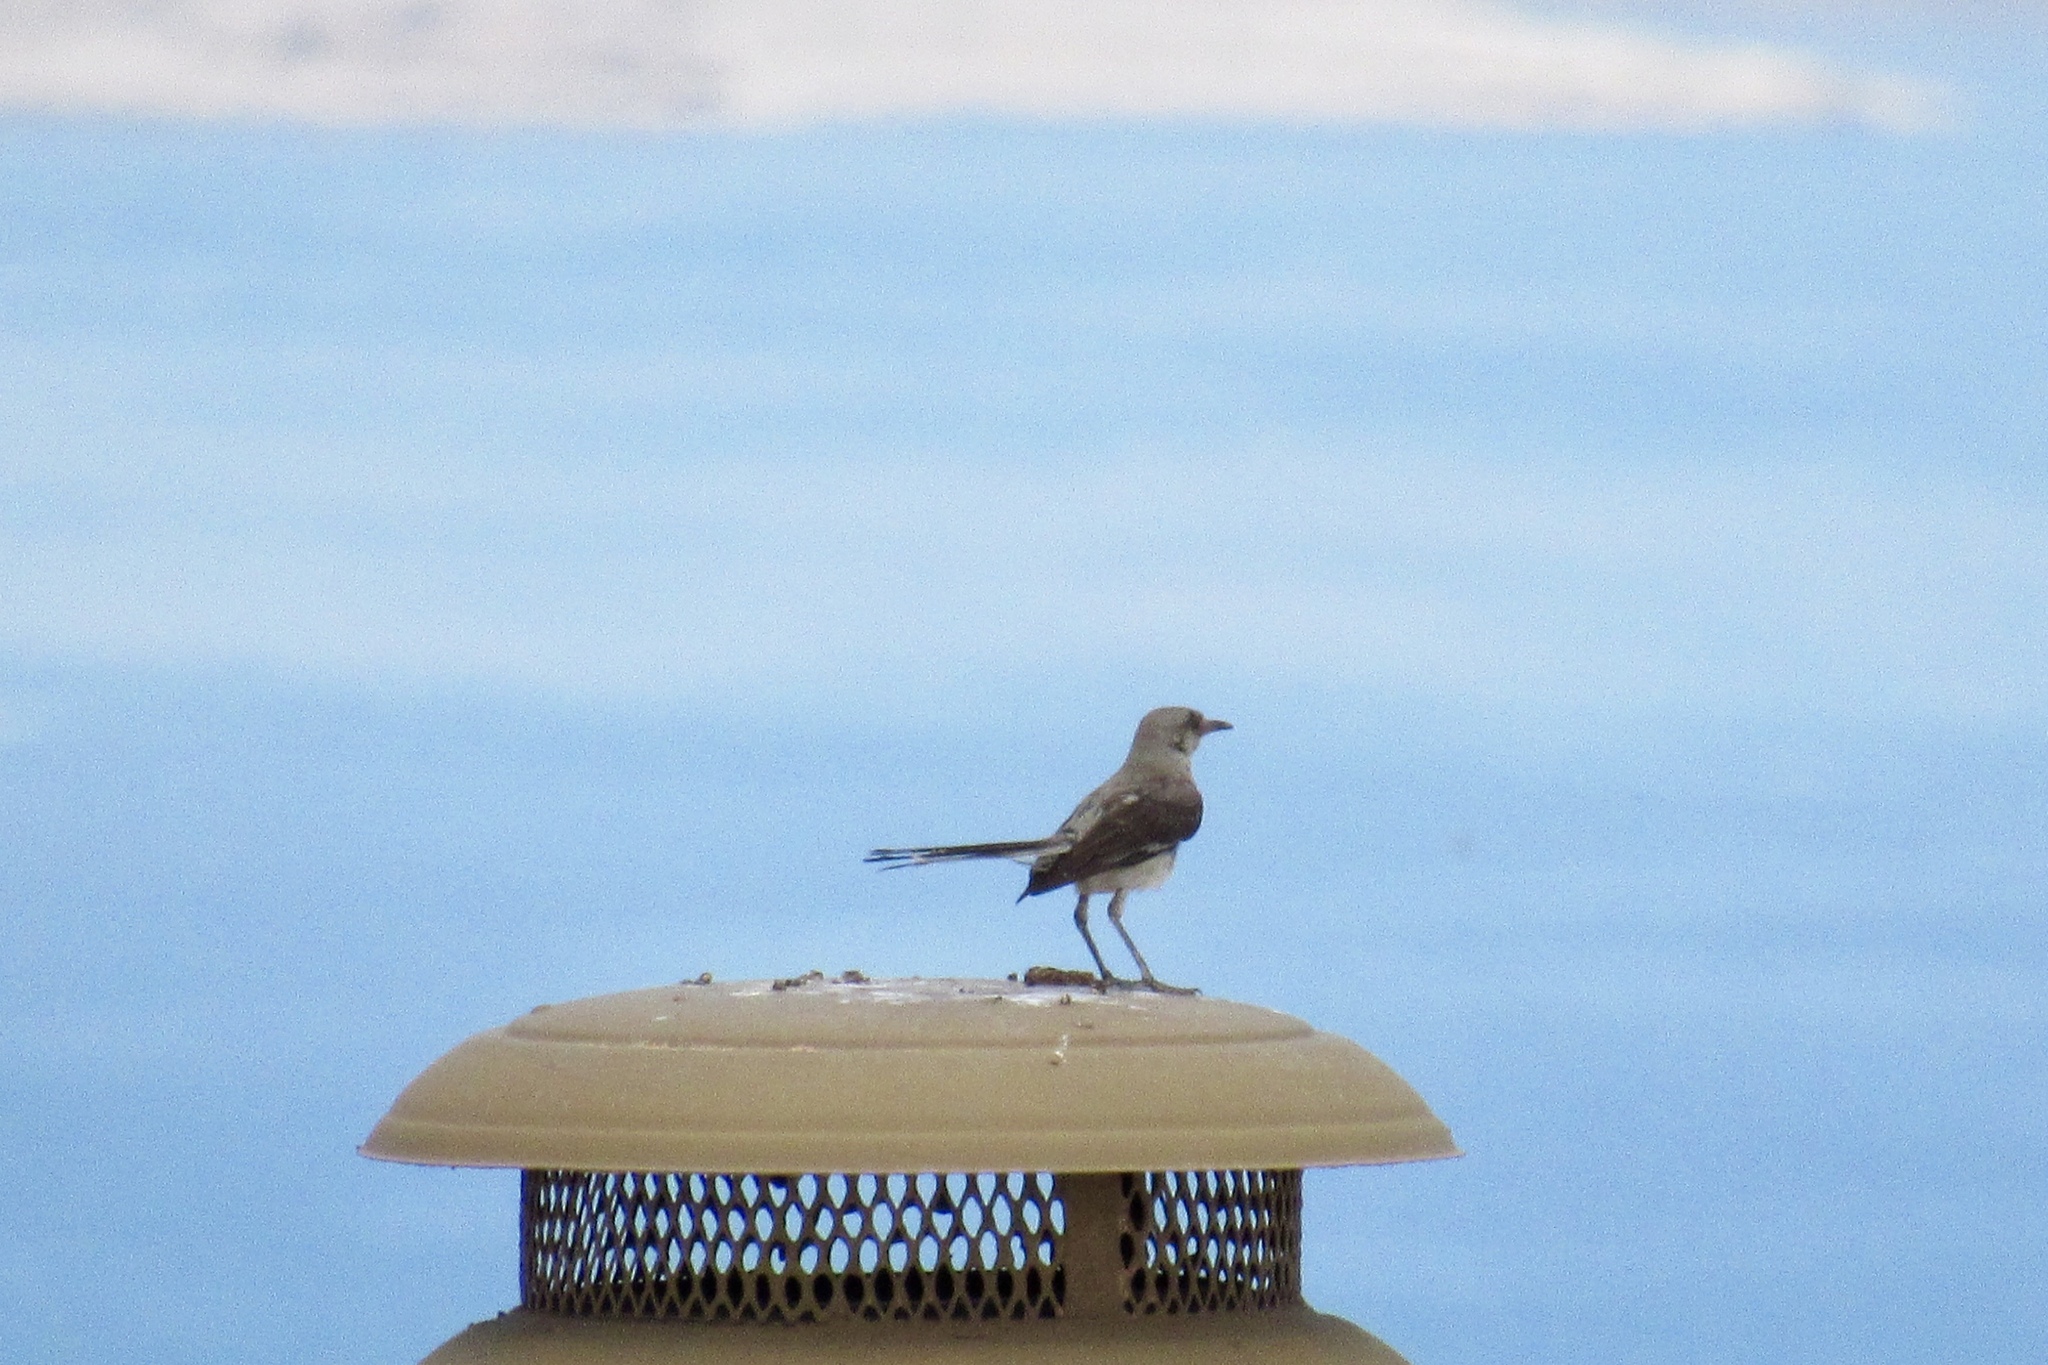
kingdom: Animalia
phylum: Chordata
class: Aves
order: Passeriformes
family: Mimidae
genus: Mimus
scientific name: Mimus polyglottos
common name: Northern mockingbird
